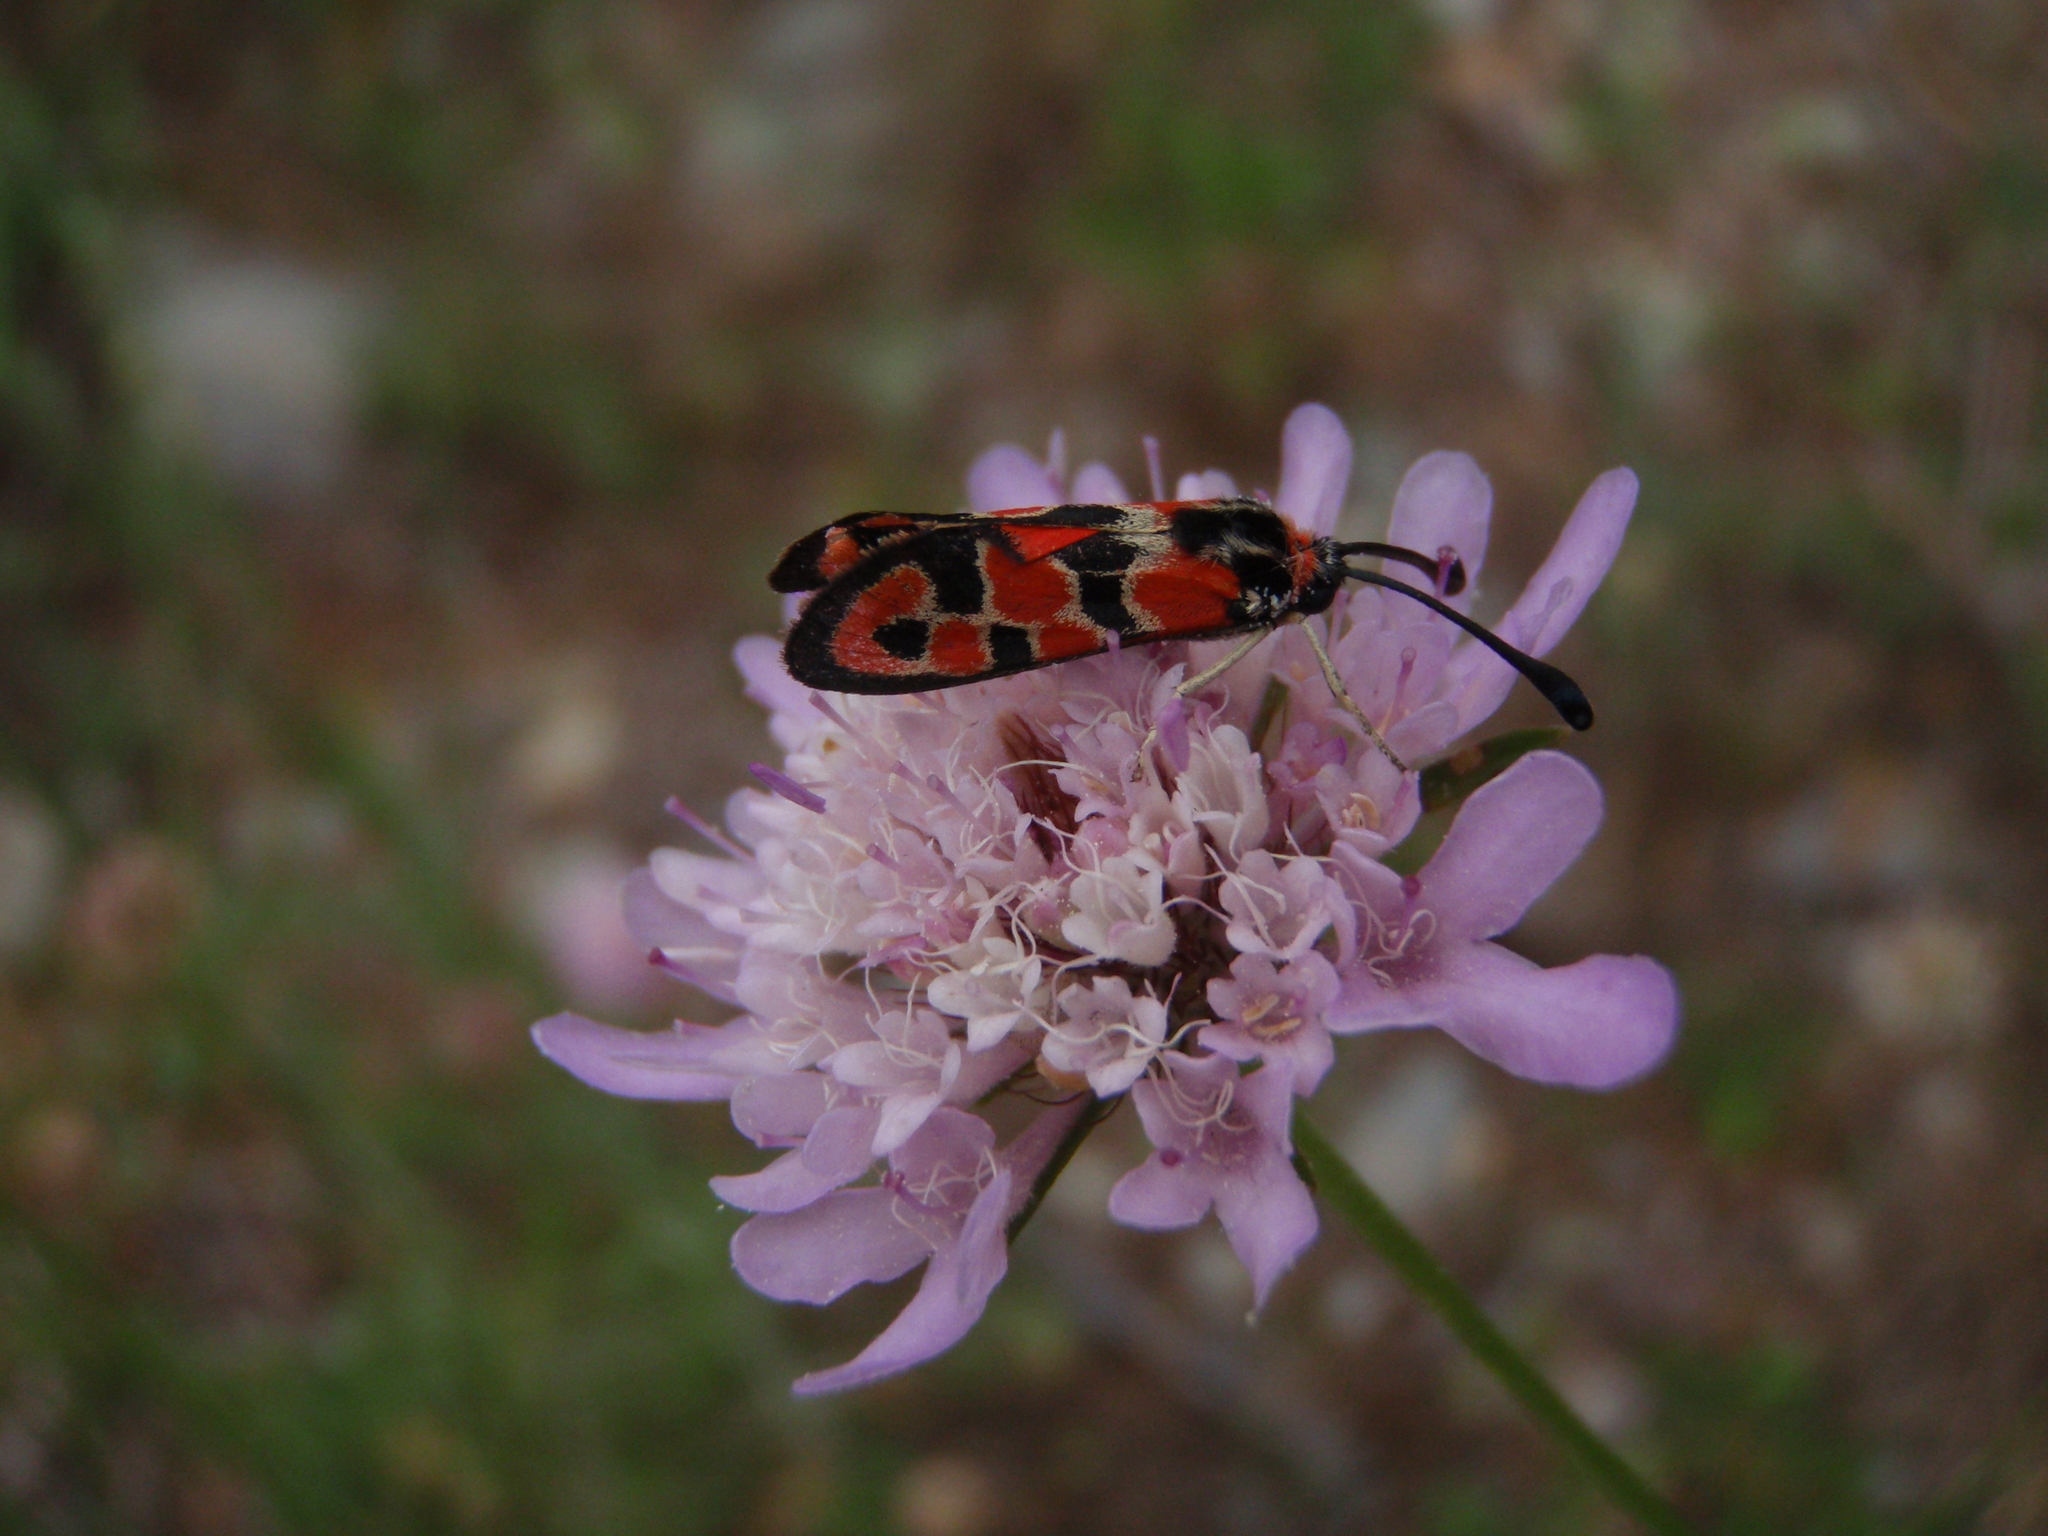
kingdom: Animalia
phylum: Arthropoda
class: Insecta
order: Lepidoptera
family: Zygaenidae
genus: Zygaena
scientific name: Zygaena fausta
